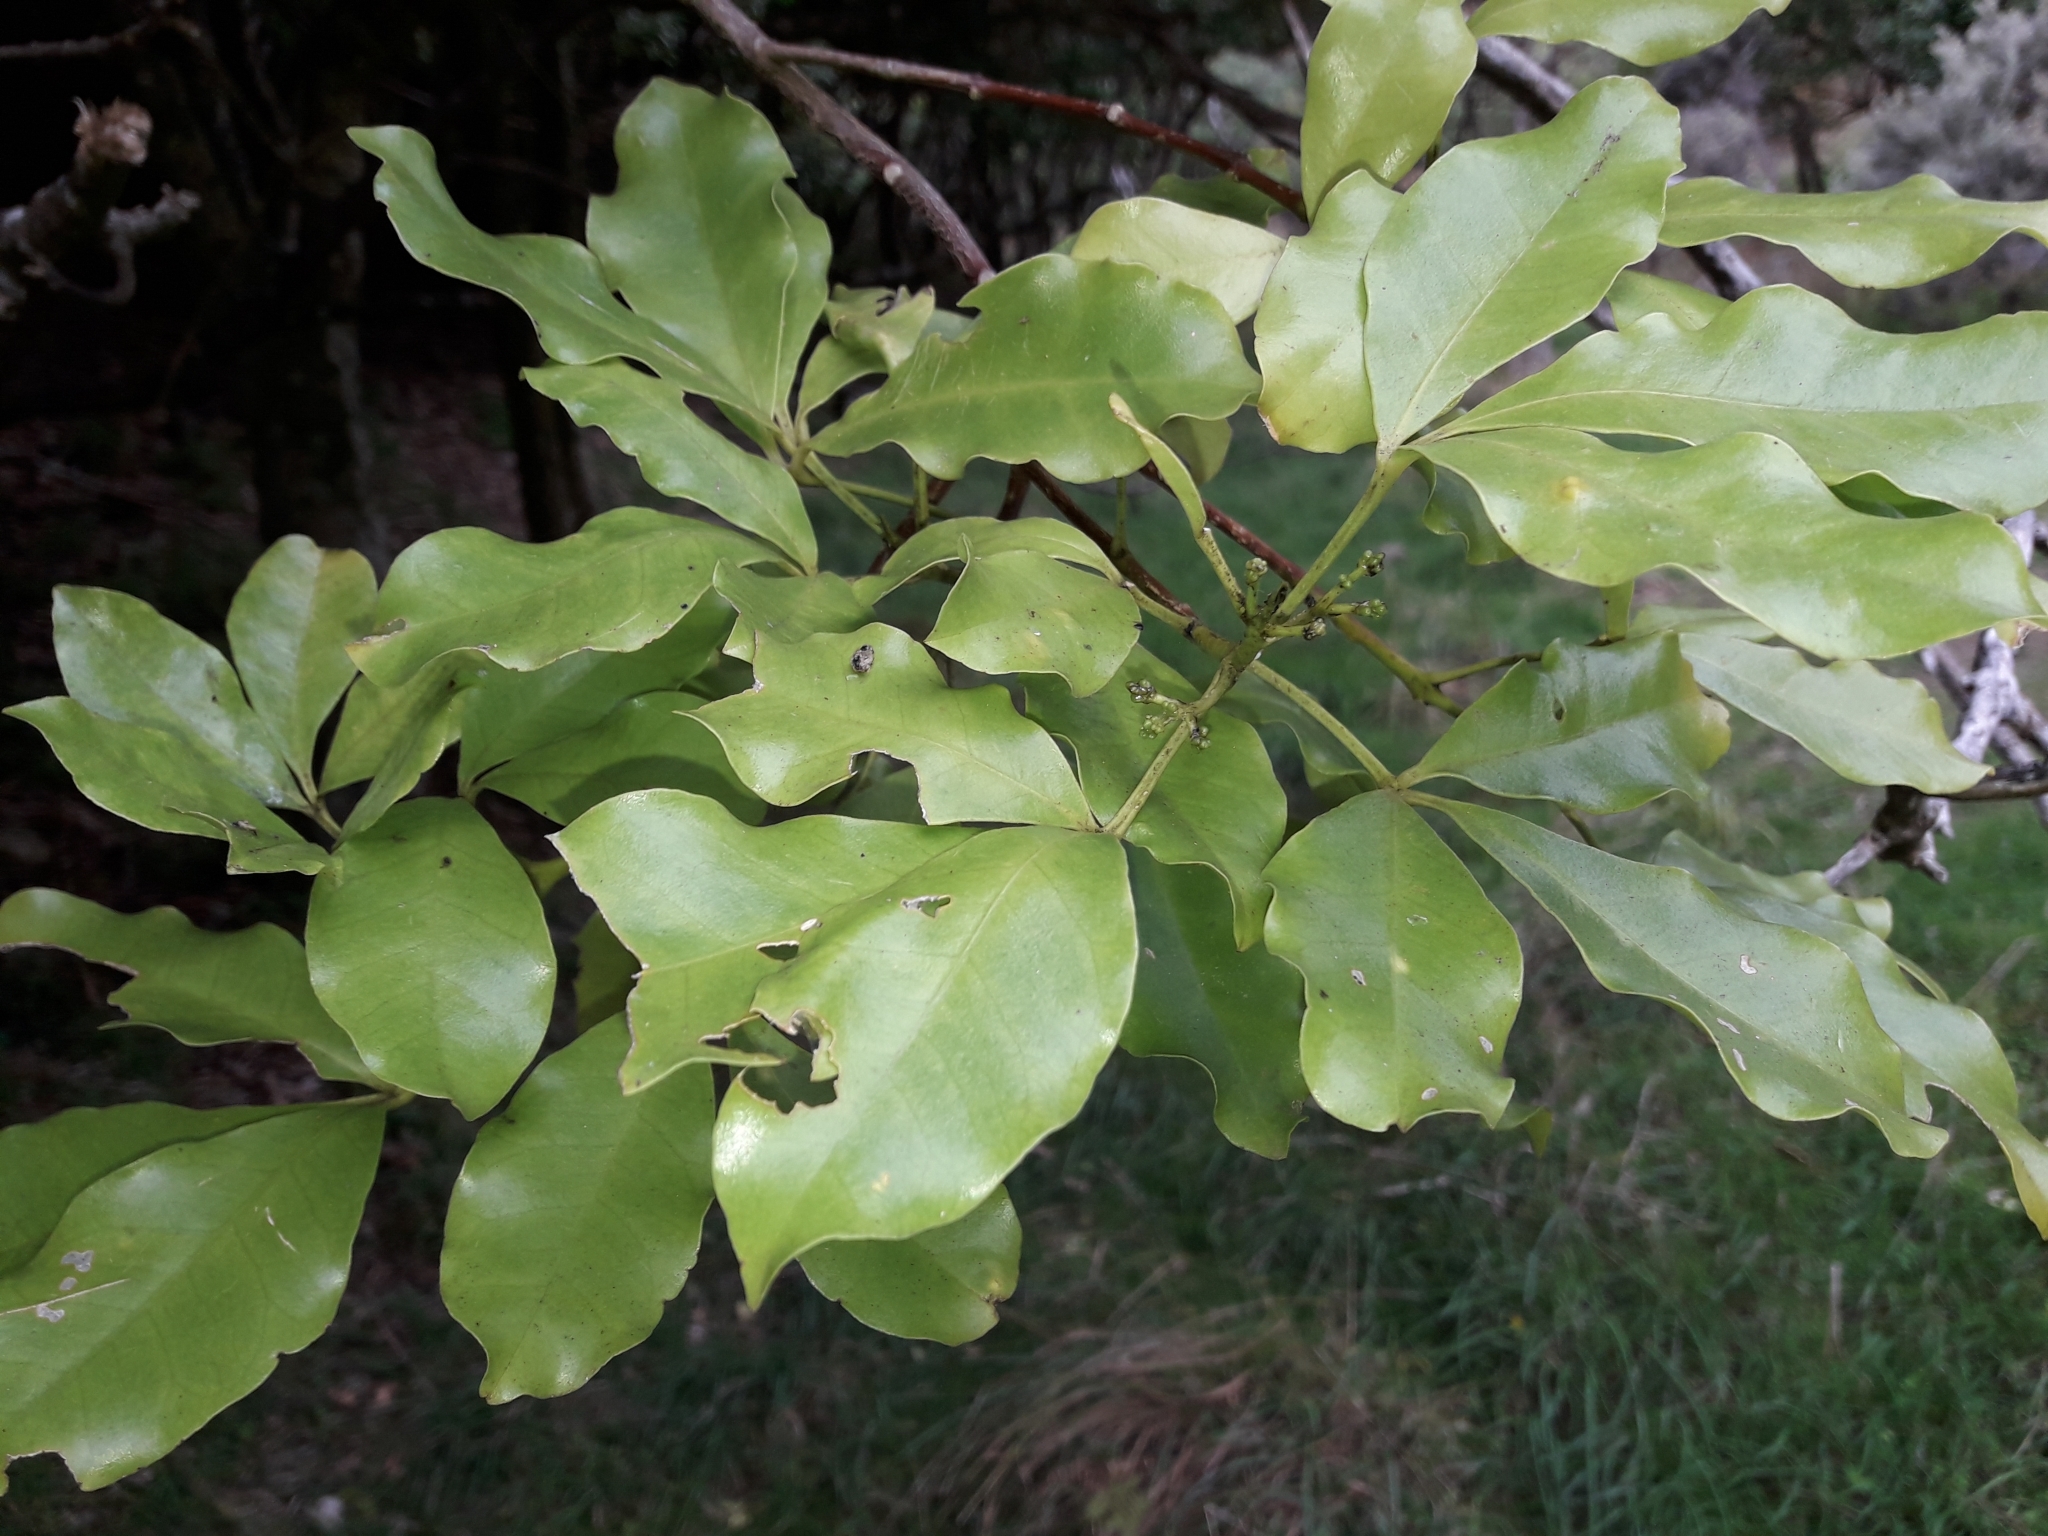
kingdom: Plantae
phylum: Tracheophyta
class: Magnoliopsida
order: Sapindales
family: Rutaceae
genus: Melicope
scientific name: Melicope ternata
